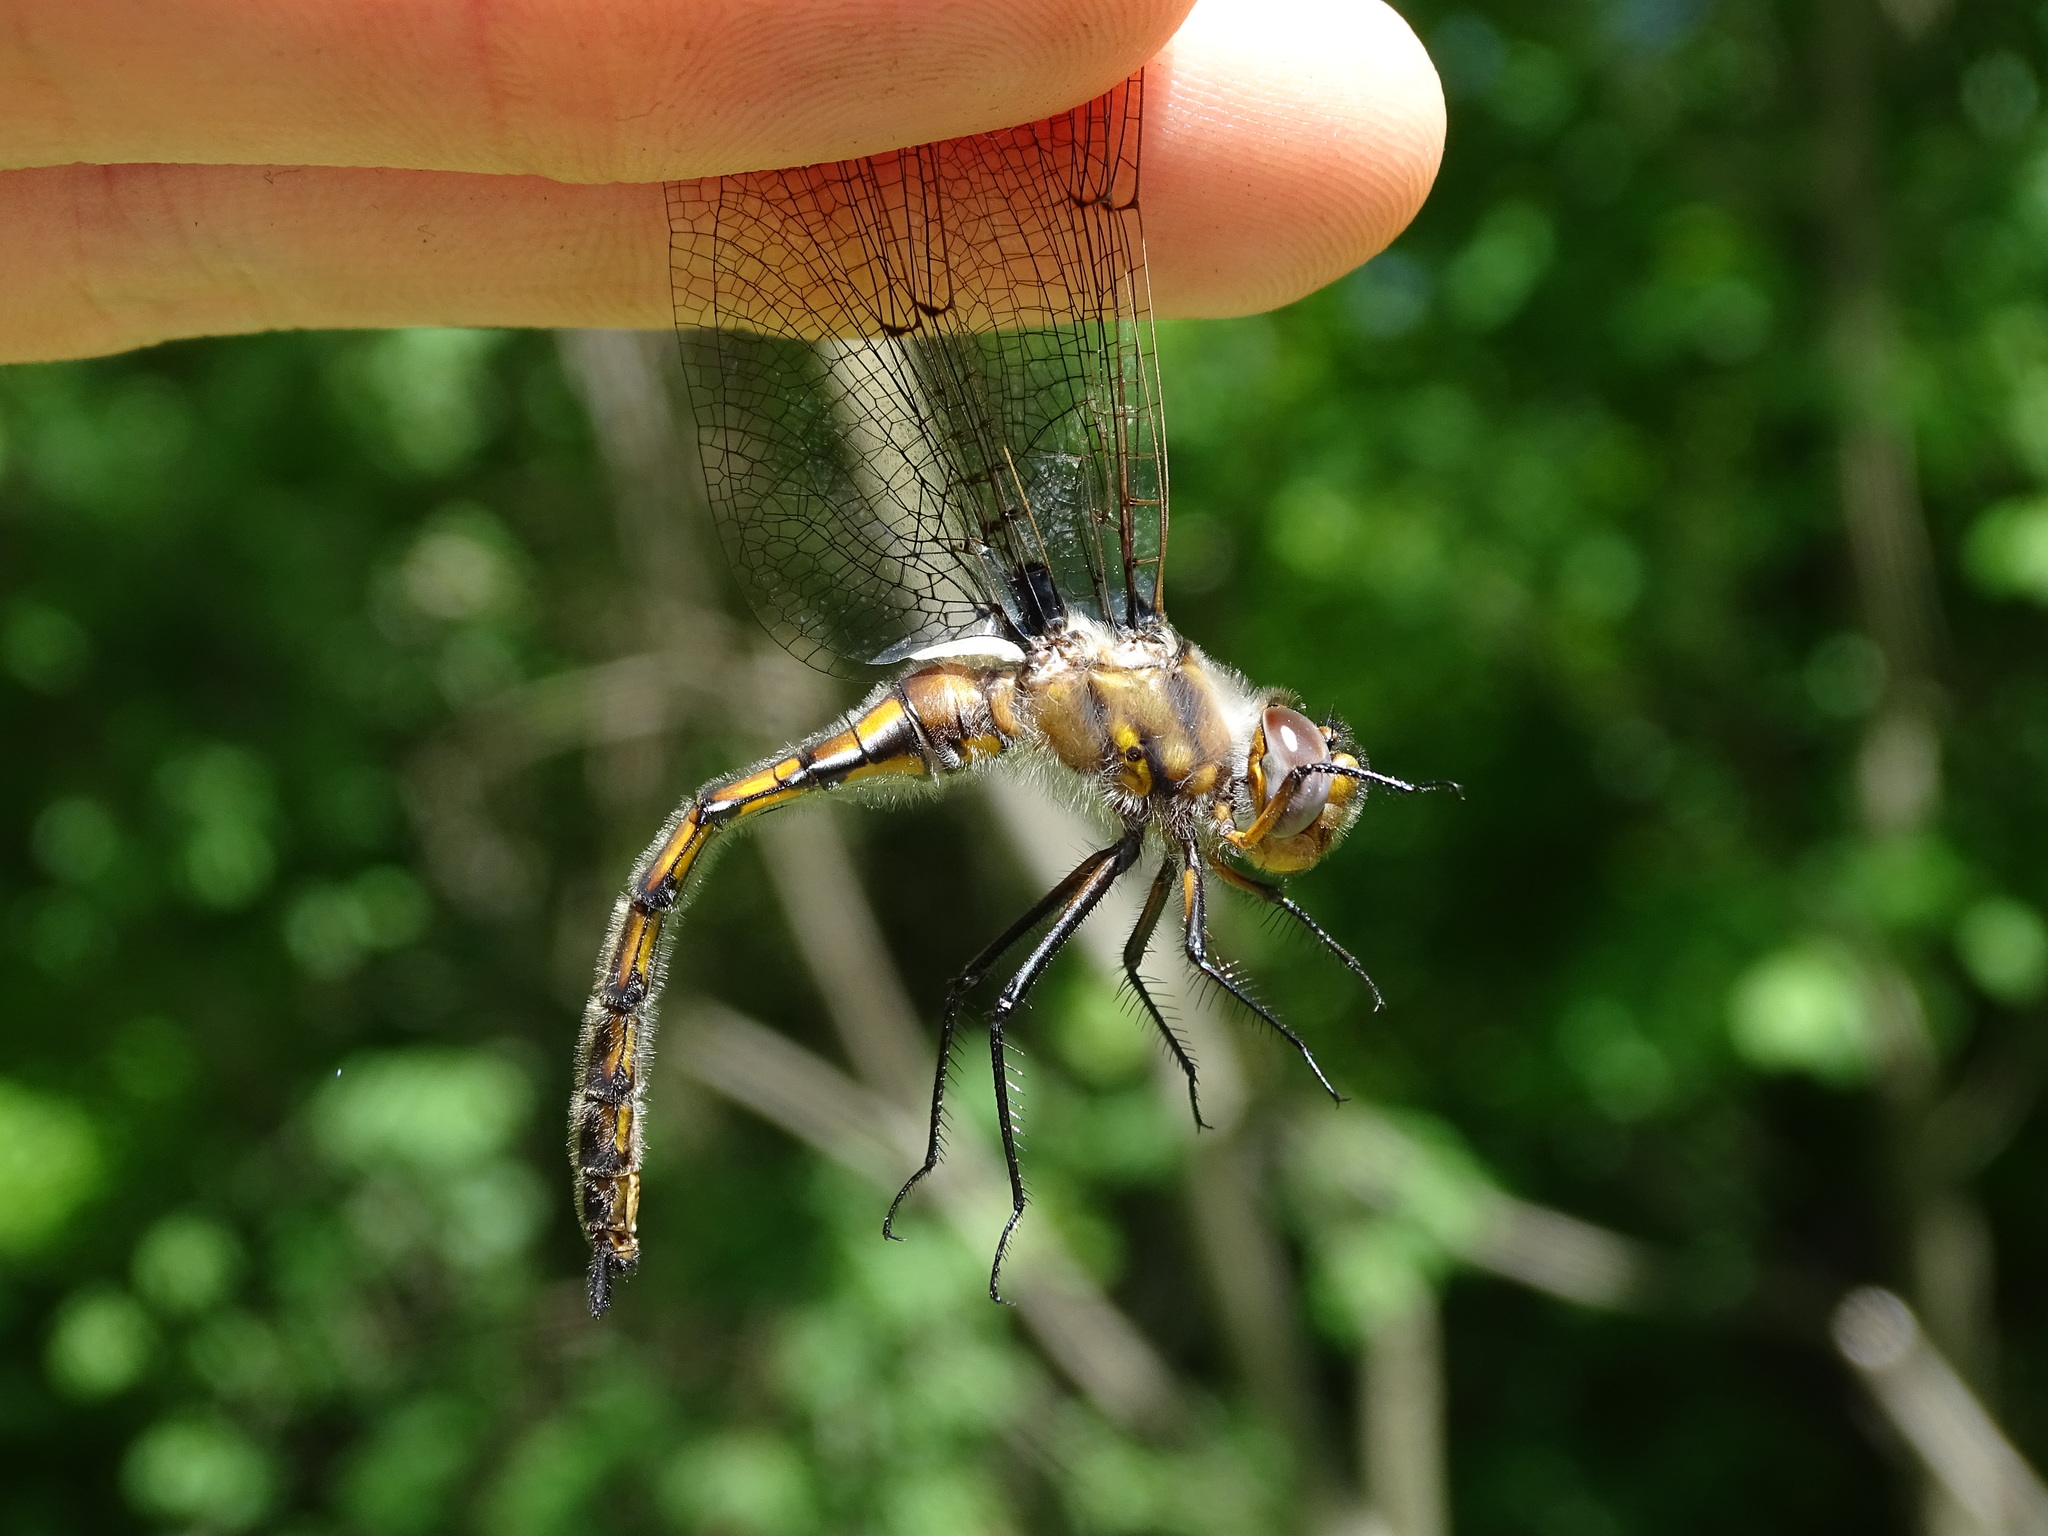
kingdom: Animalia
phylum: Arthropoda
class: Insecta
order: Odonata
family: Corduliidae
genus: Epitheca
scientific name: Epitheca canis
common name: Beaverpond baskettail
